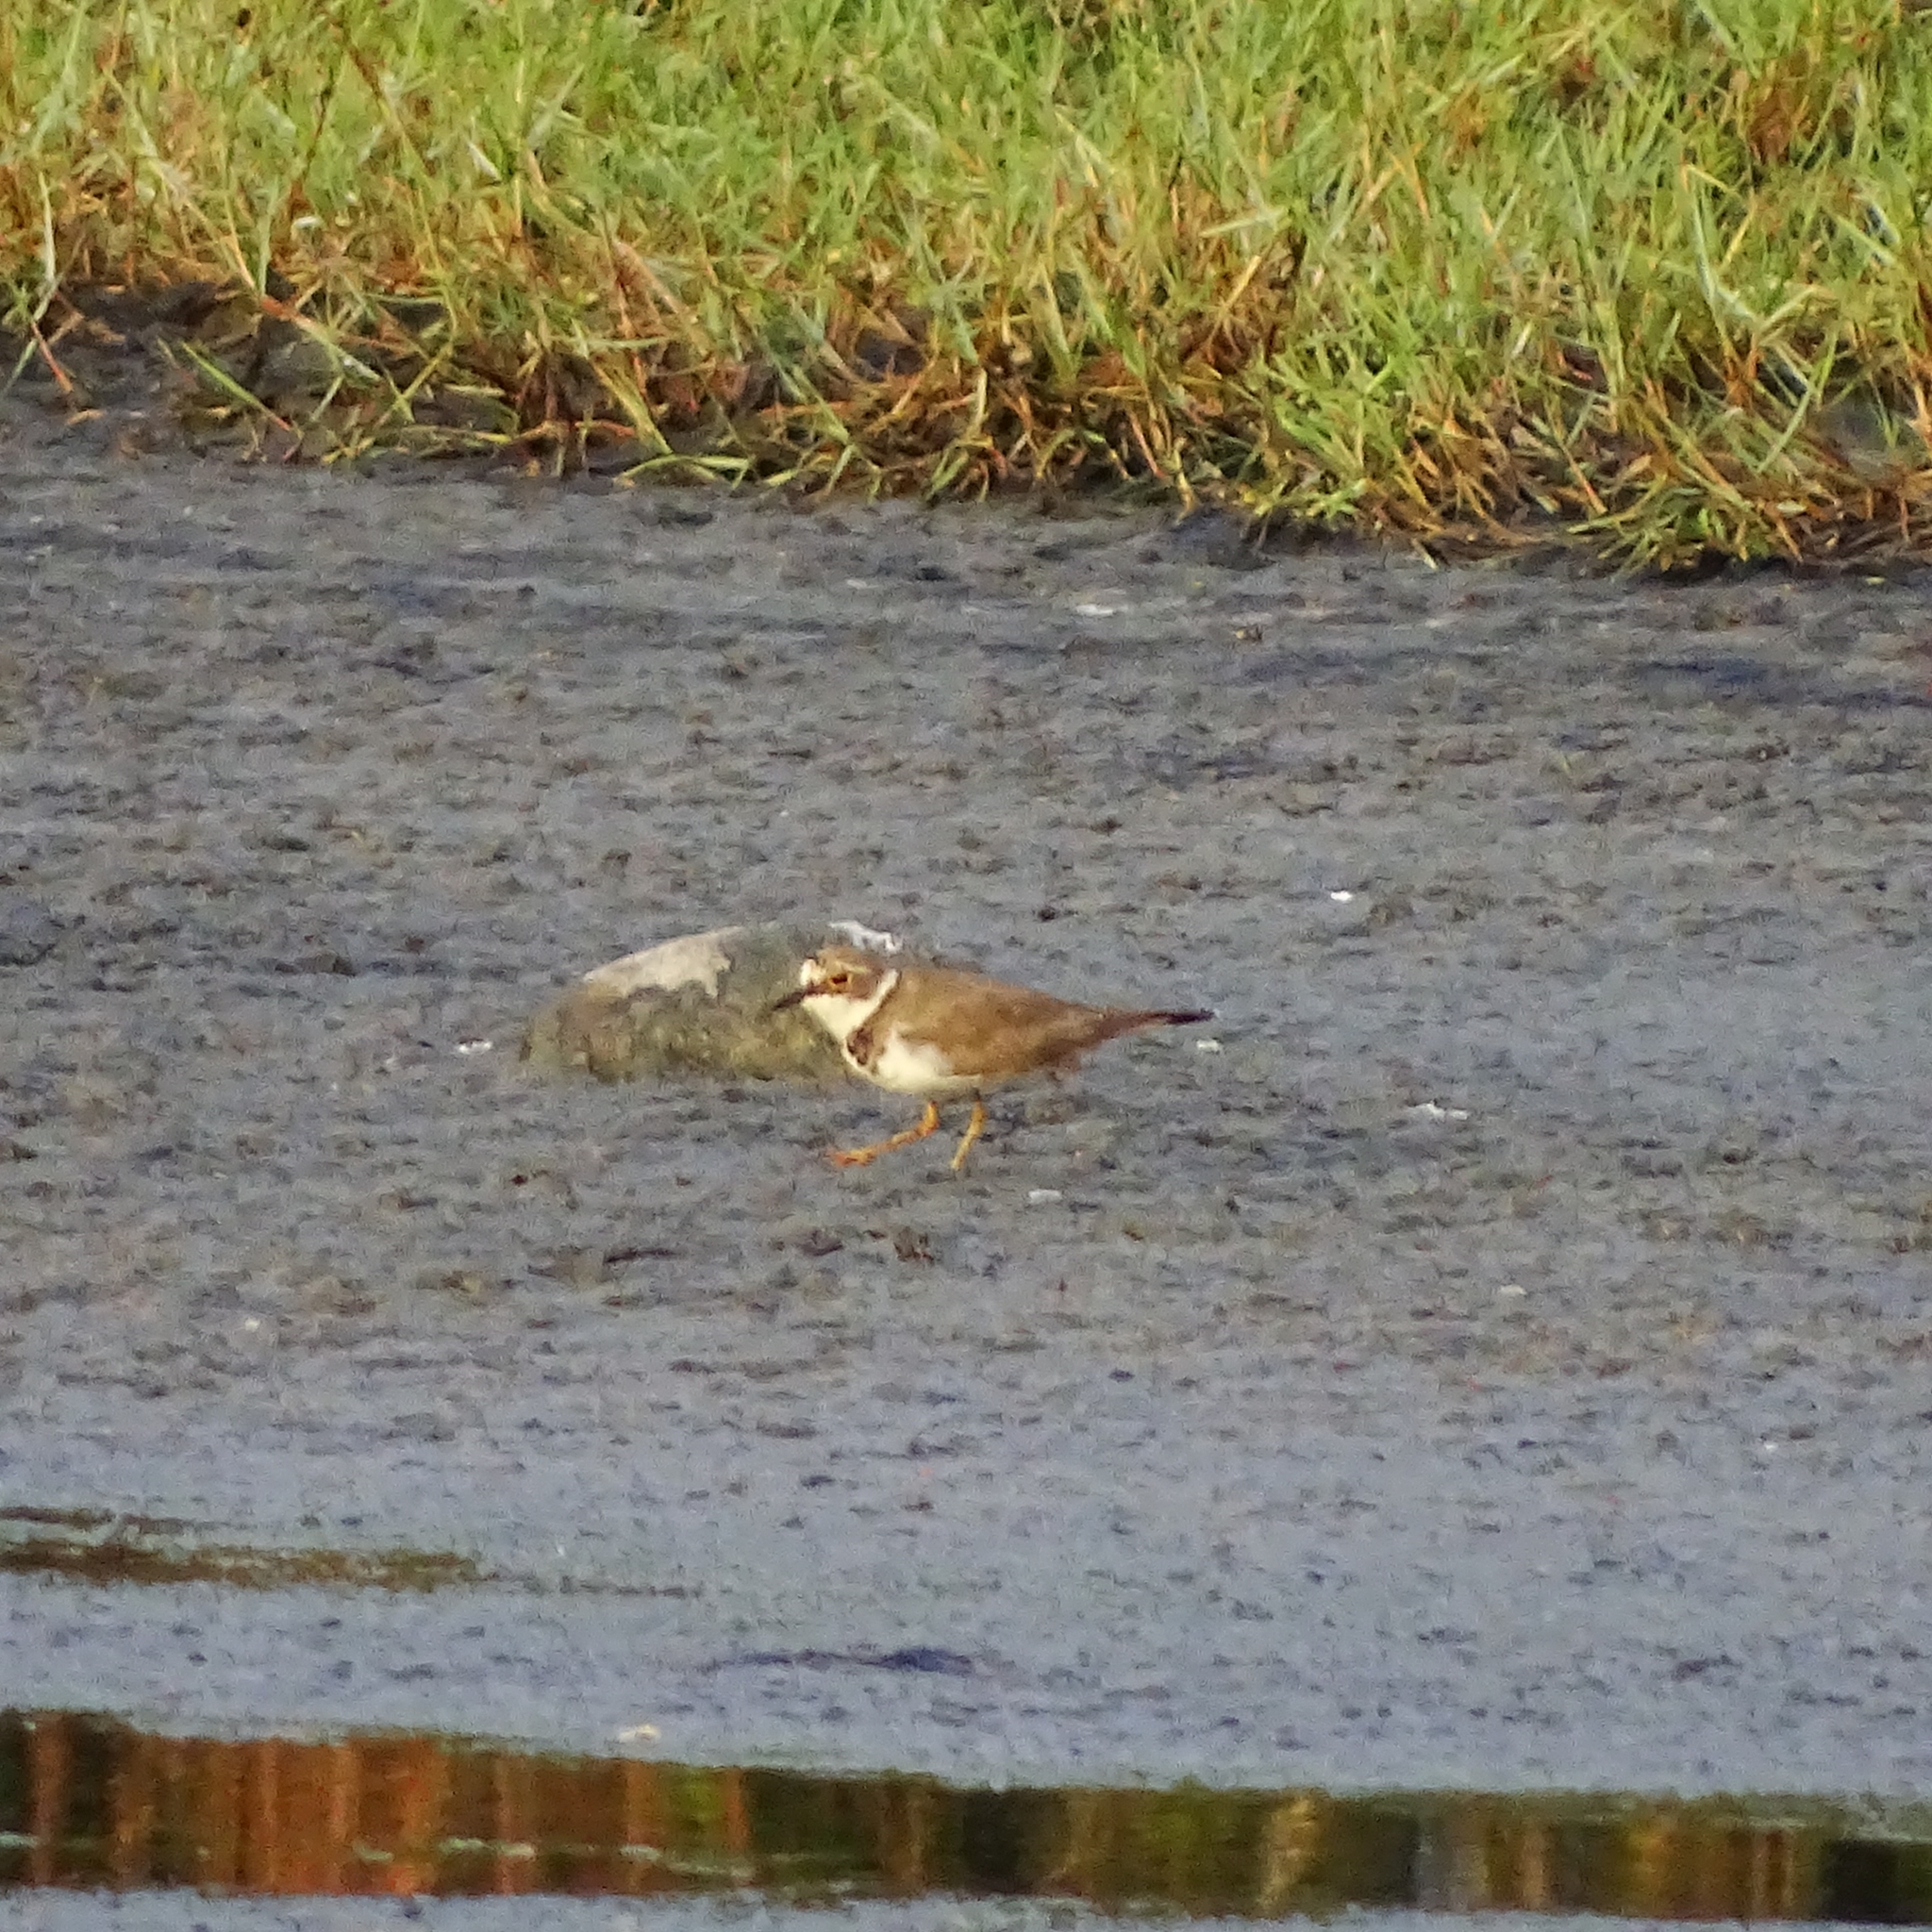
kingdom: Animalia
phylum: Chordata
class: Aves
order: Charadriiformes
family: Charadriidae
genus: Charadrius
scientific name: Charadrius dubius
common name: Little ringed plover
